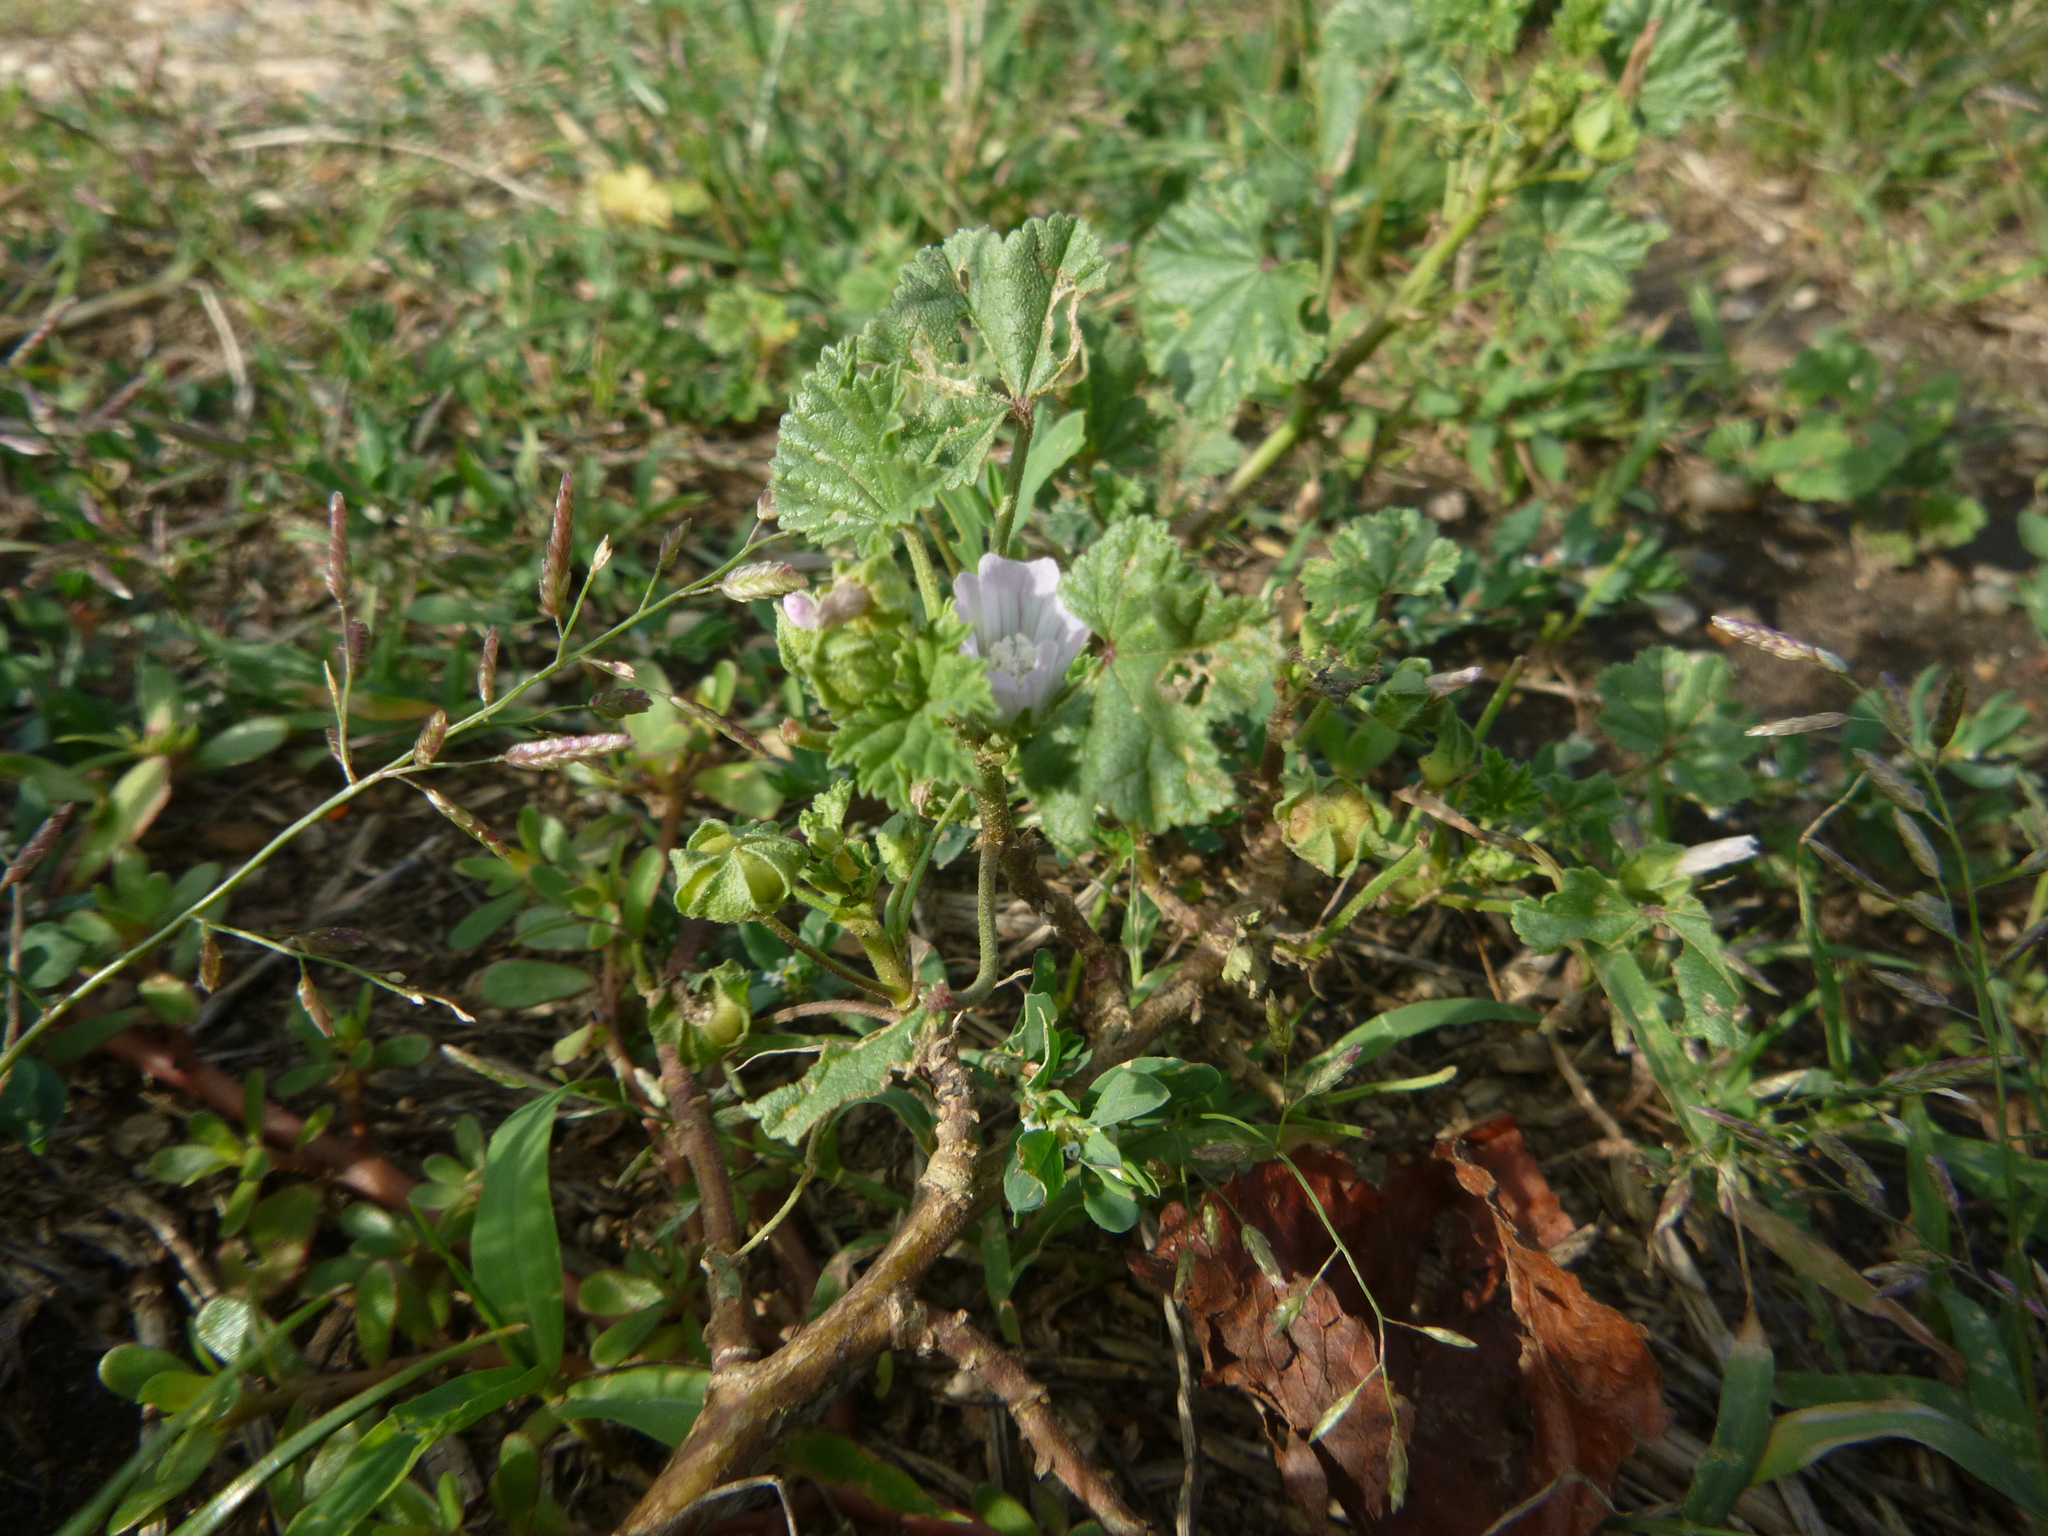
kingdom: Plantae
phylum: Tracheophyta
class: Magnoliopsida
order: Malvales
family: Malvaceae
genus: Malva
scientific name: Malva neglecta
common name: Common mallow
